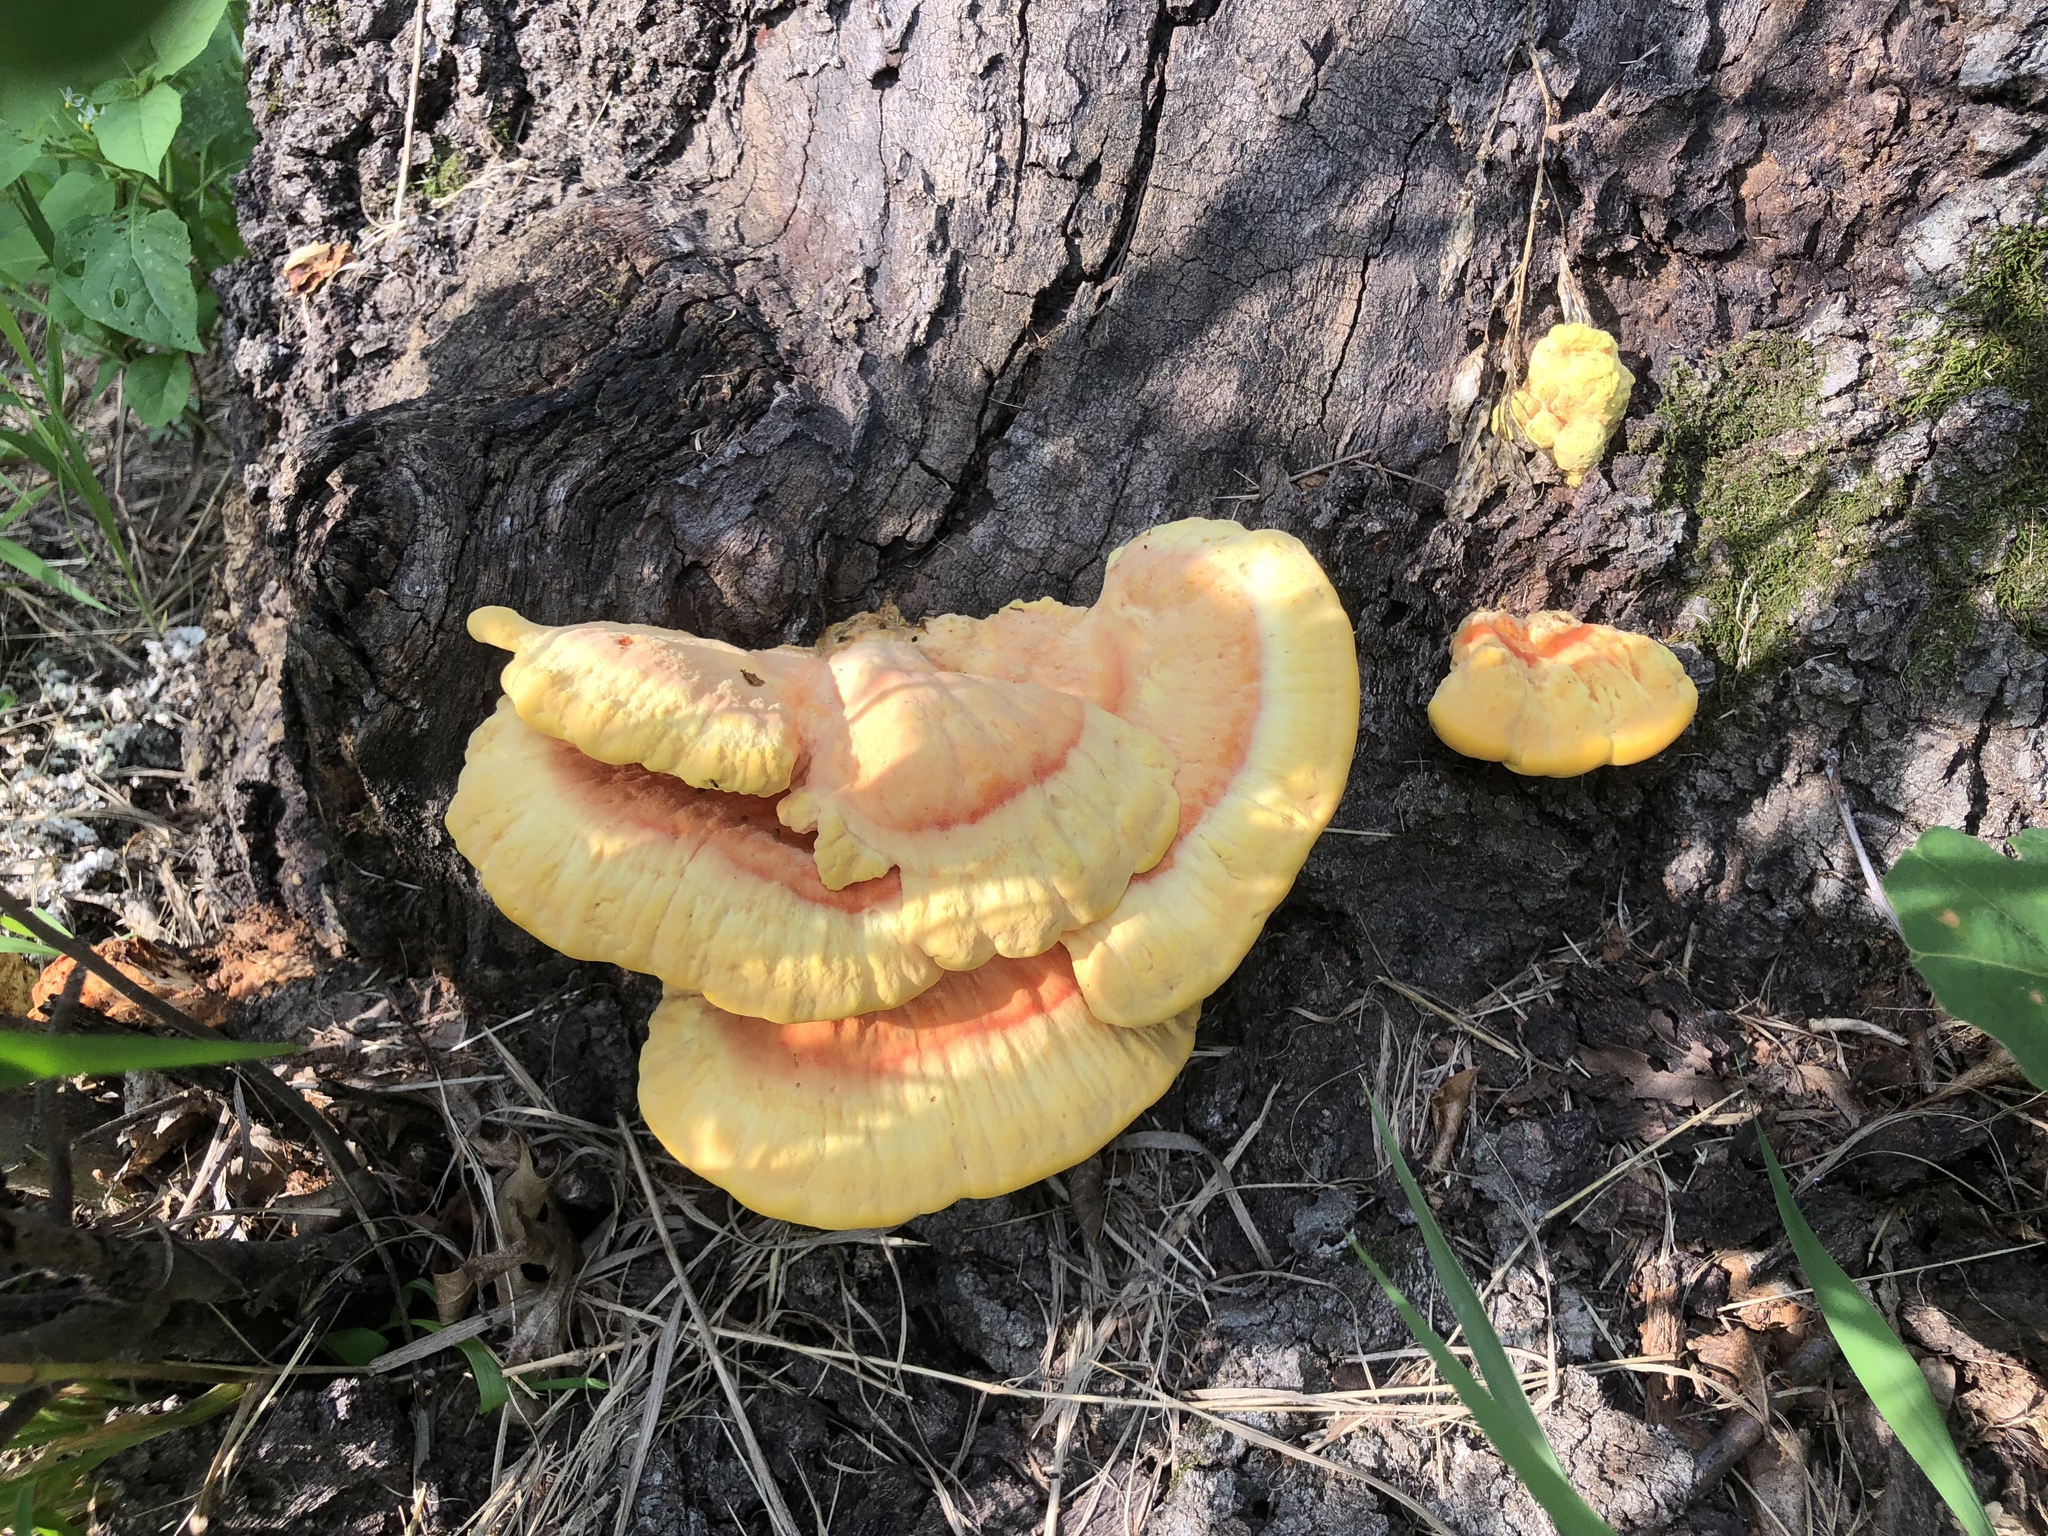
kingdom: Fungi
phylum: Basidiomycota
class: Agaricomycetes
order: Polyporales
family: Laetiporaceae
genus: Laetiporus
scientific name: Laetiporus sulphureus
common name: Chicken of the woods
